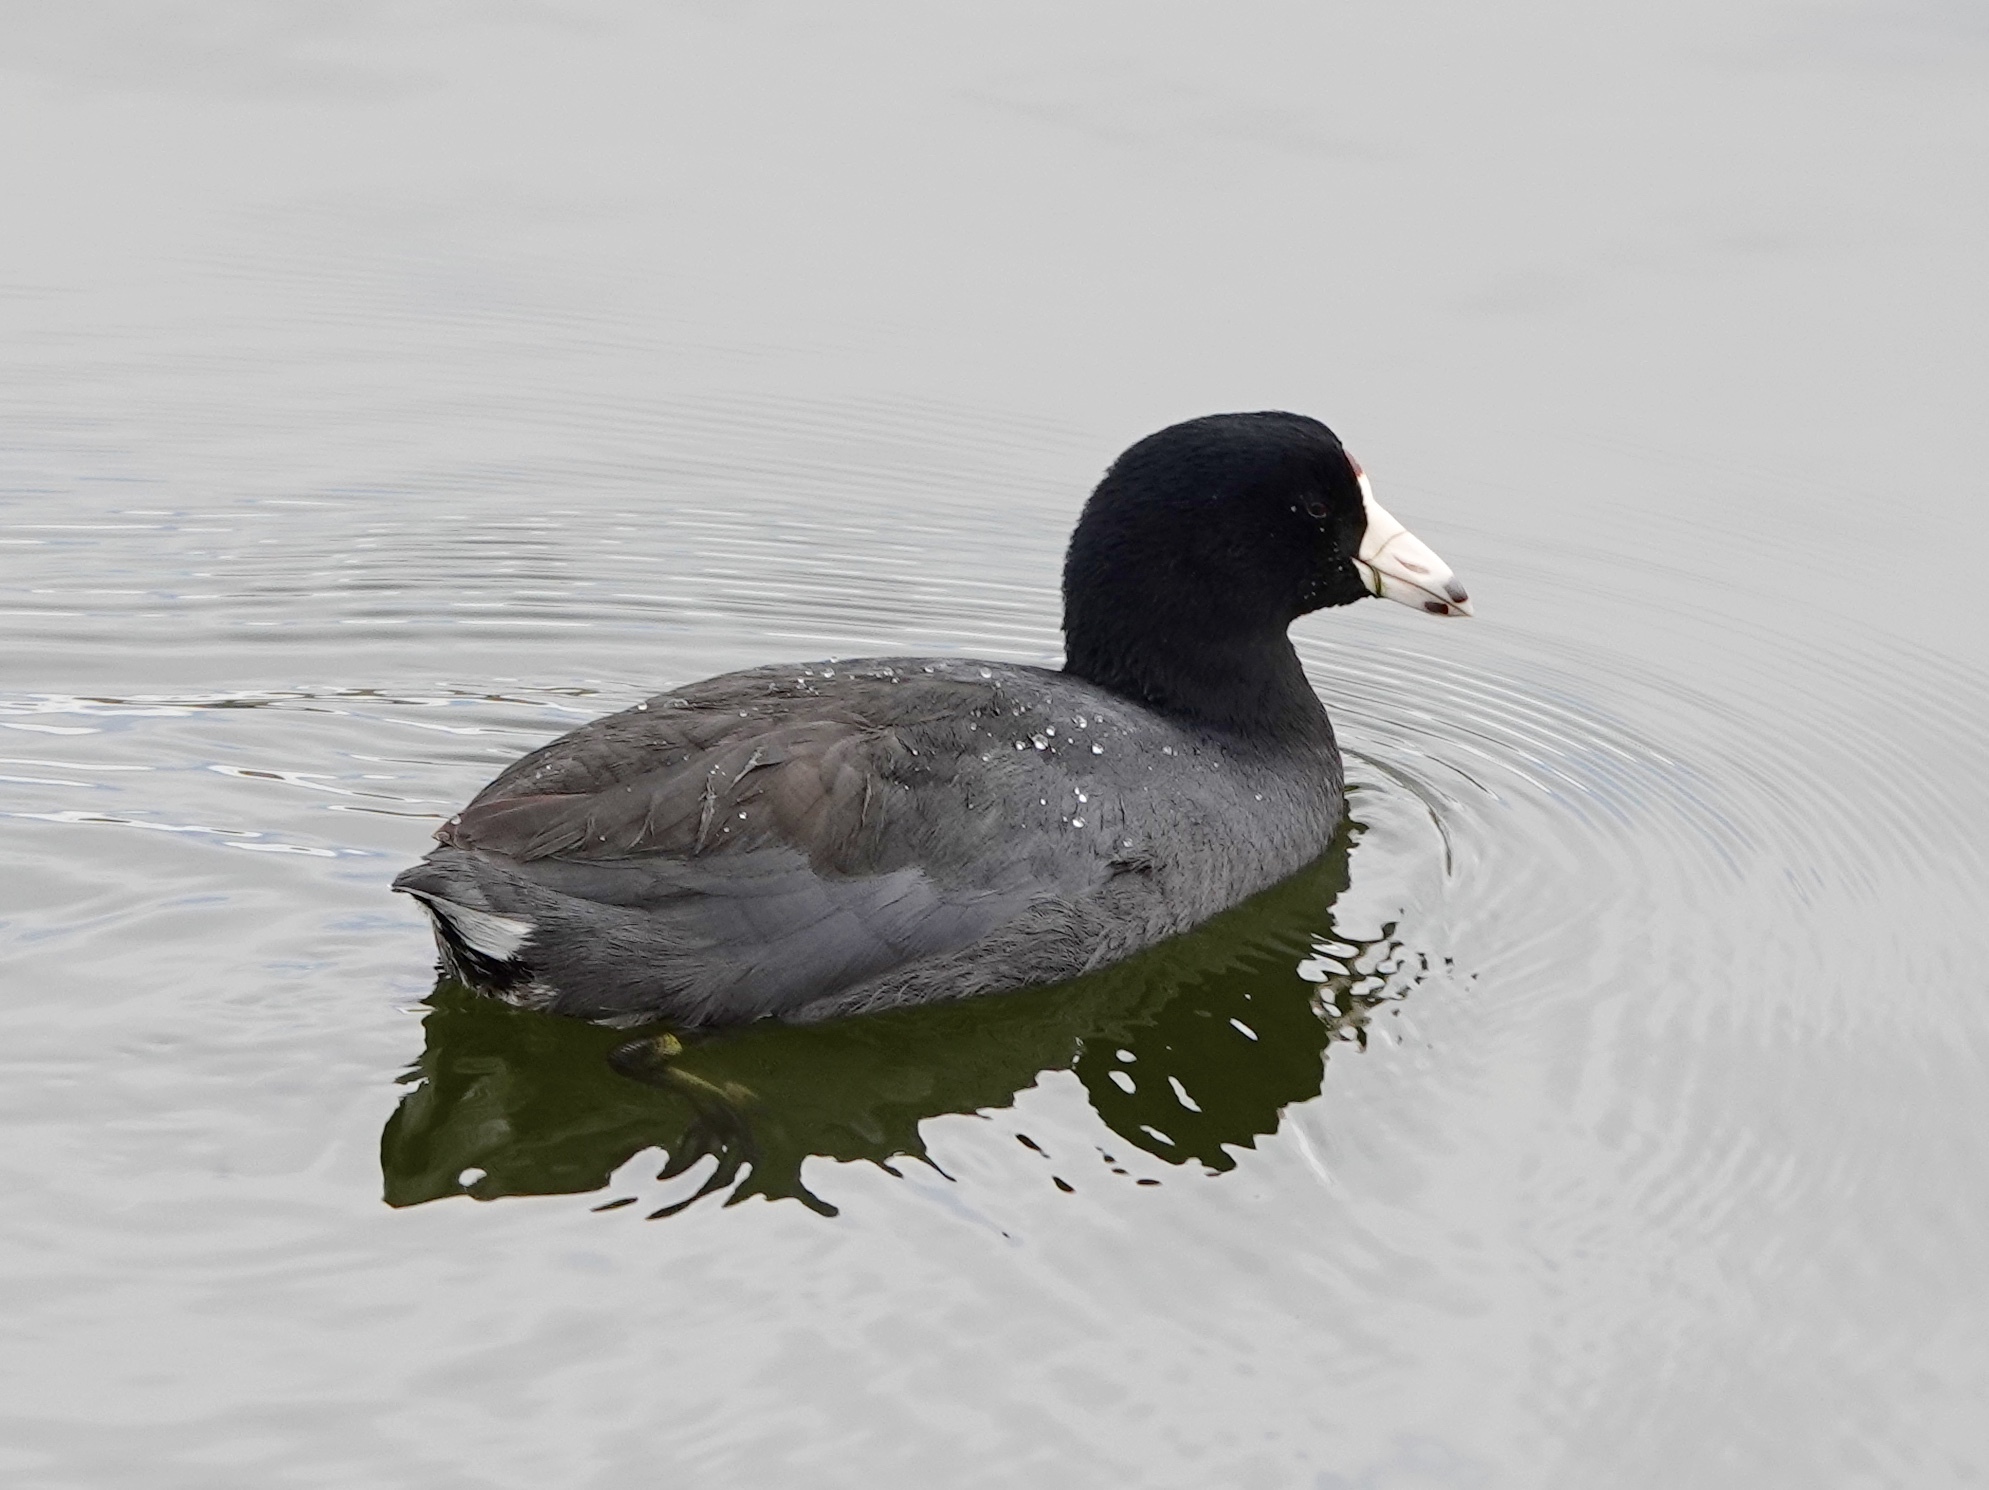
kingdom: Animalia
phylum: Chordata
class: Aves
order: Gruiformes
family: Rallidae
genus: Fulica
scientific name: Fulica americana
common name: American coot
